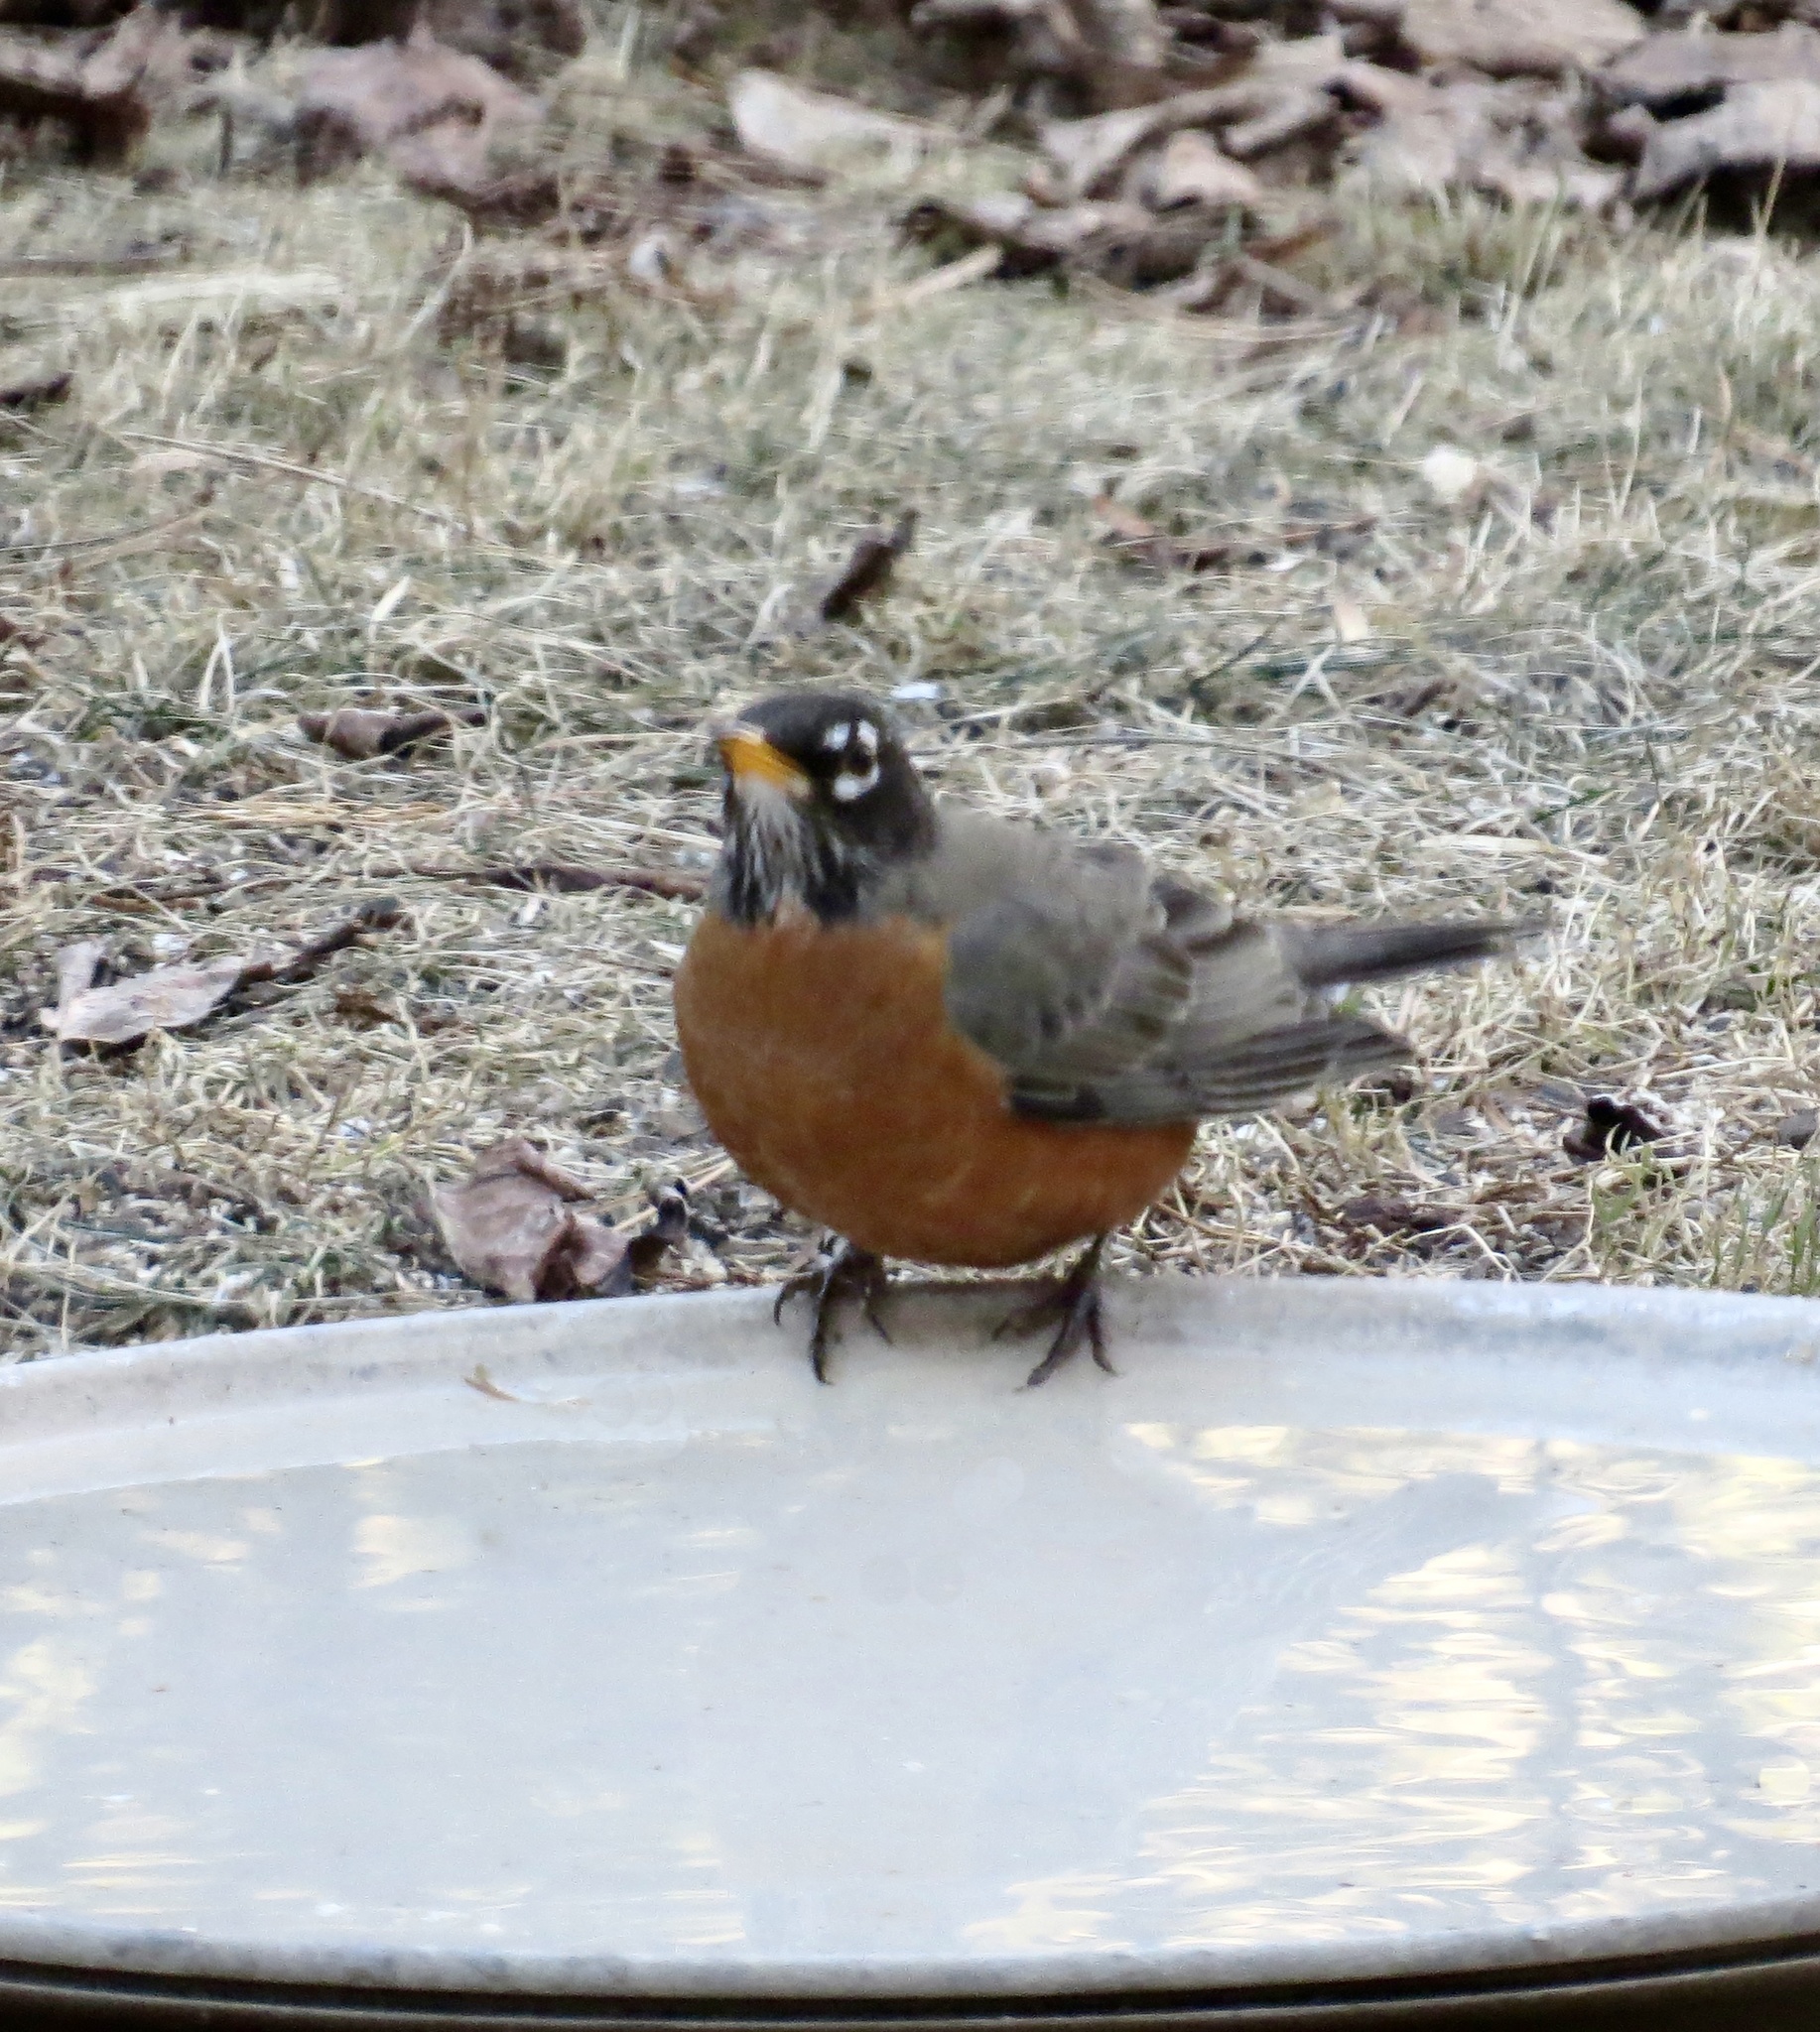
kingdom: Animalia
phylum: Chordata
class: Aves
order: Passeriformes
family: Turdidae
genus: Turdus
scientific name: Turdus migratorius
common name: American robin
